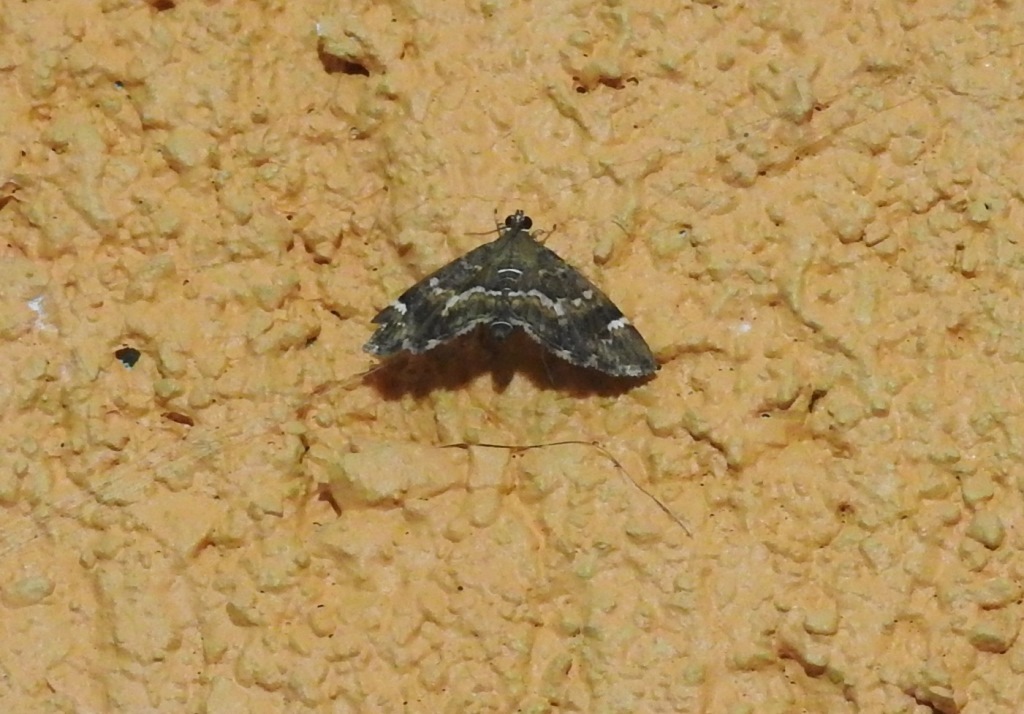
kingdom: Animalia
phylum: Arthropoda
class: Insecta
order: Lepidoptera
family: Crambidae
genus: Hymenia
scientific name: Hymenia perspectalis
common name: Spotted beet webworm
